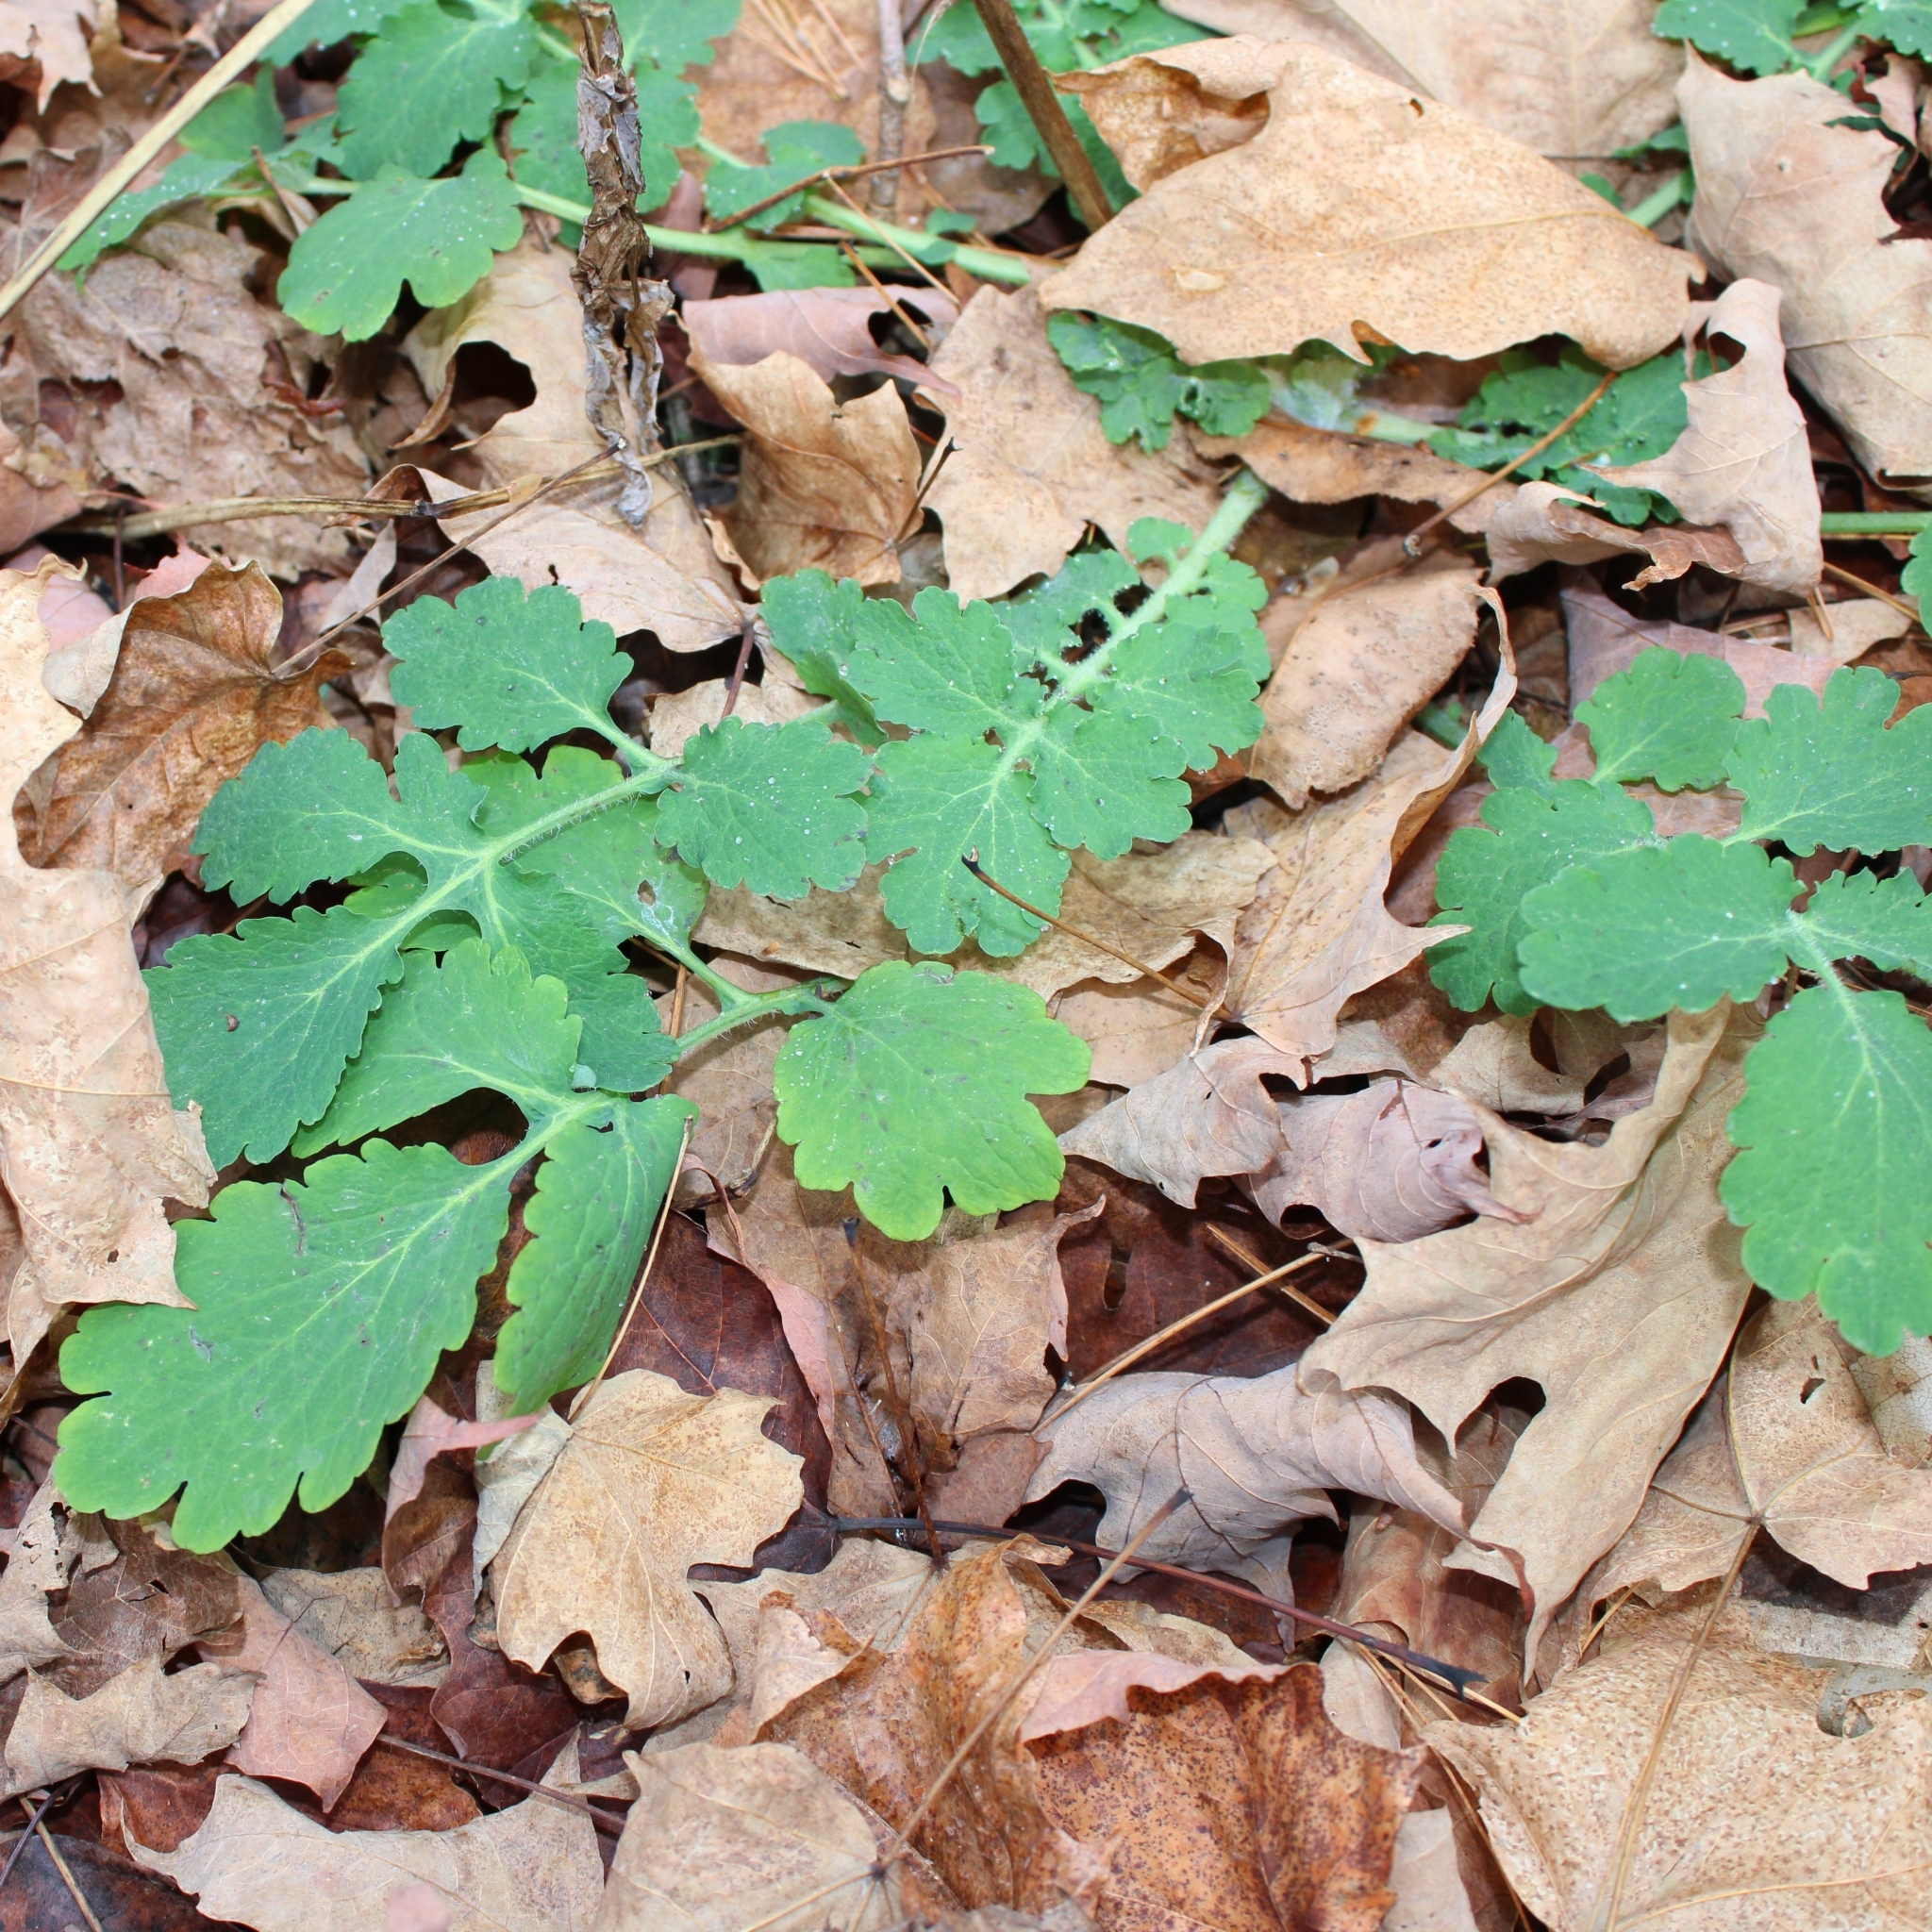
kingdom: Plantae
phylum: Tracheophyta
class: Magnoliopsida
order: Ranunculales
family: Papaveraceae
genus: Chelidonium
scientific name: Chelidonium majus
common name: Greater celandine
